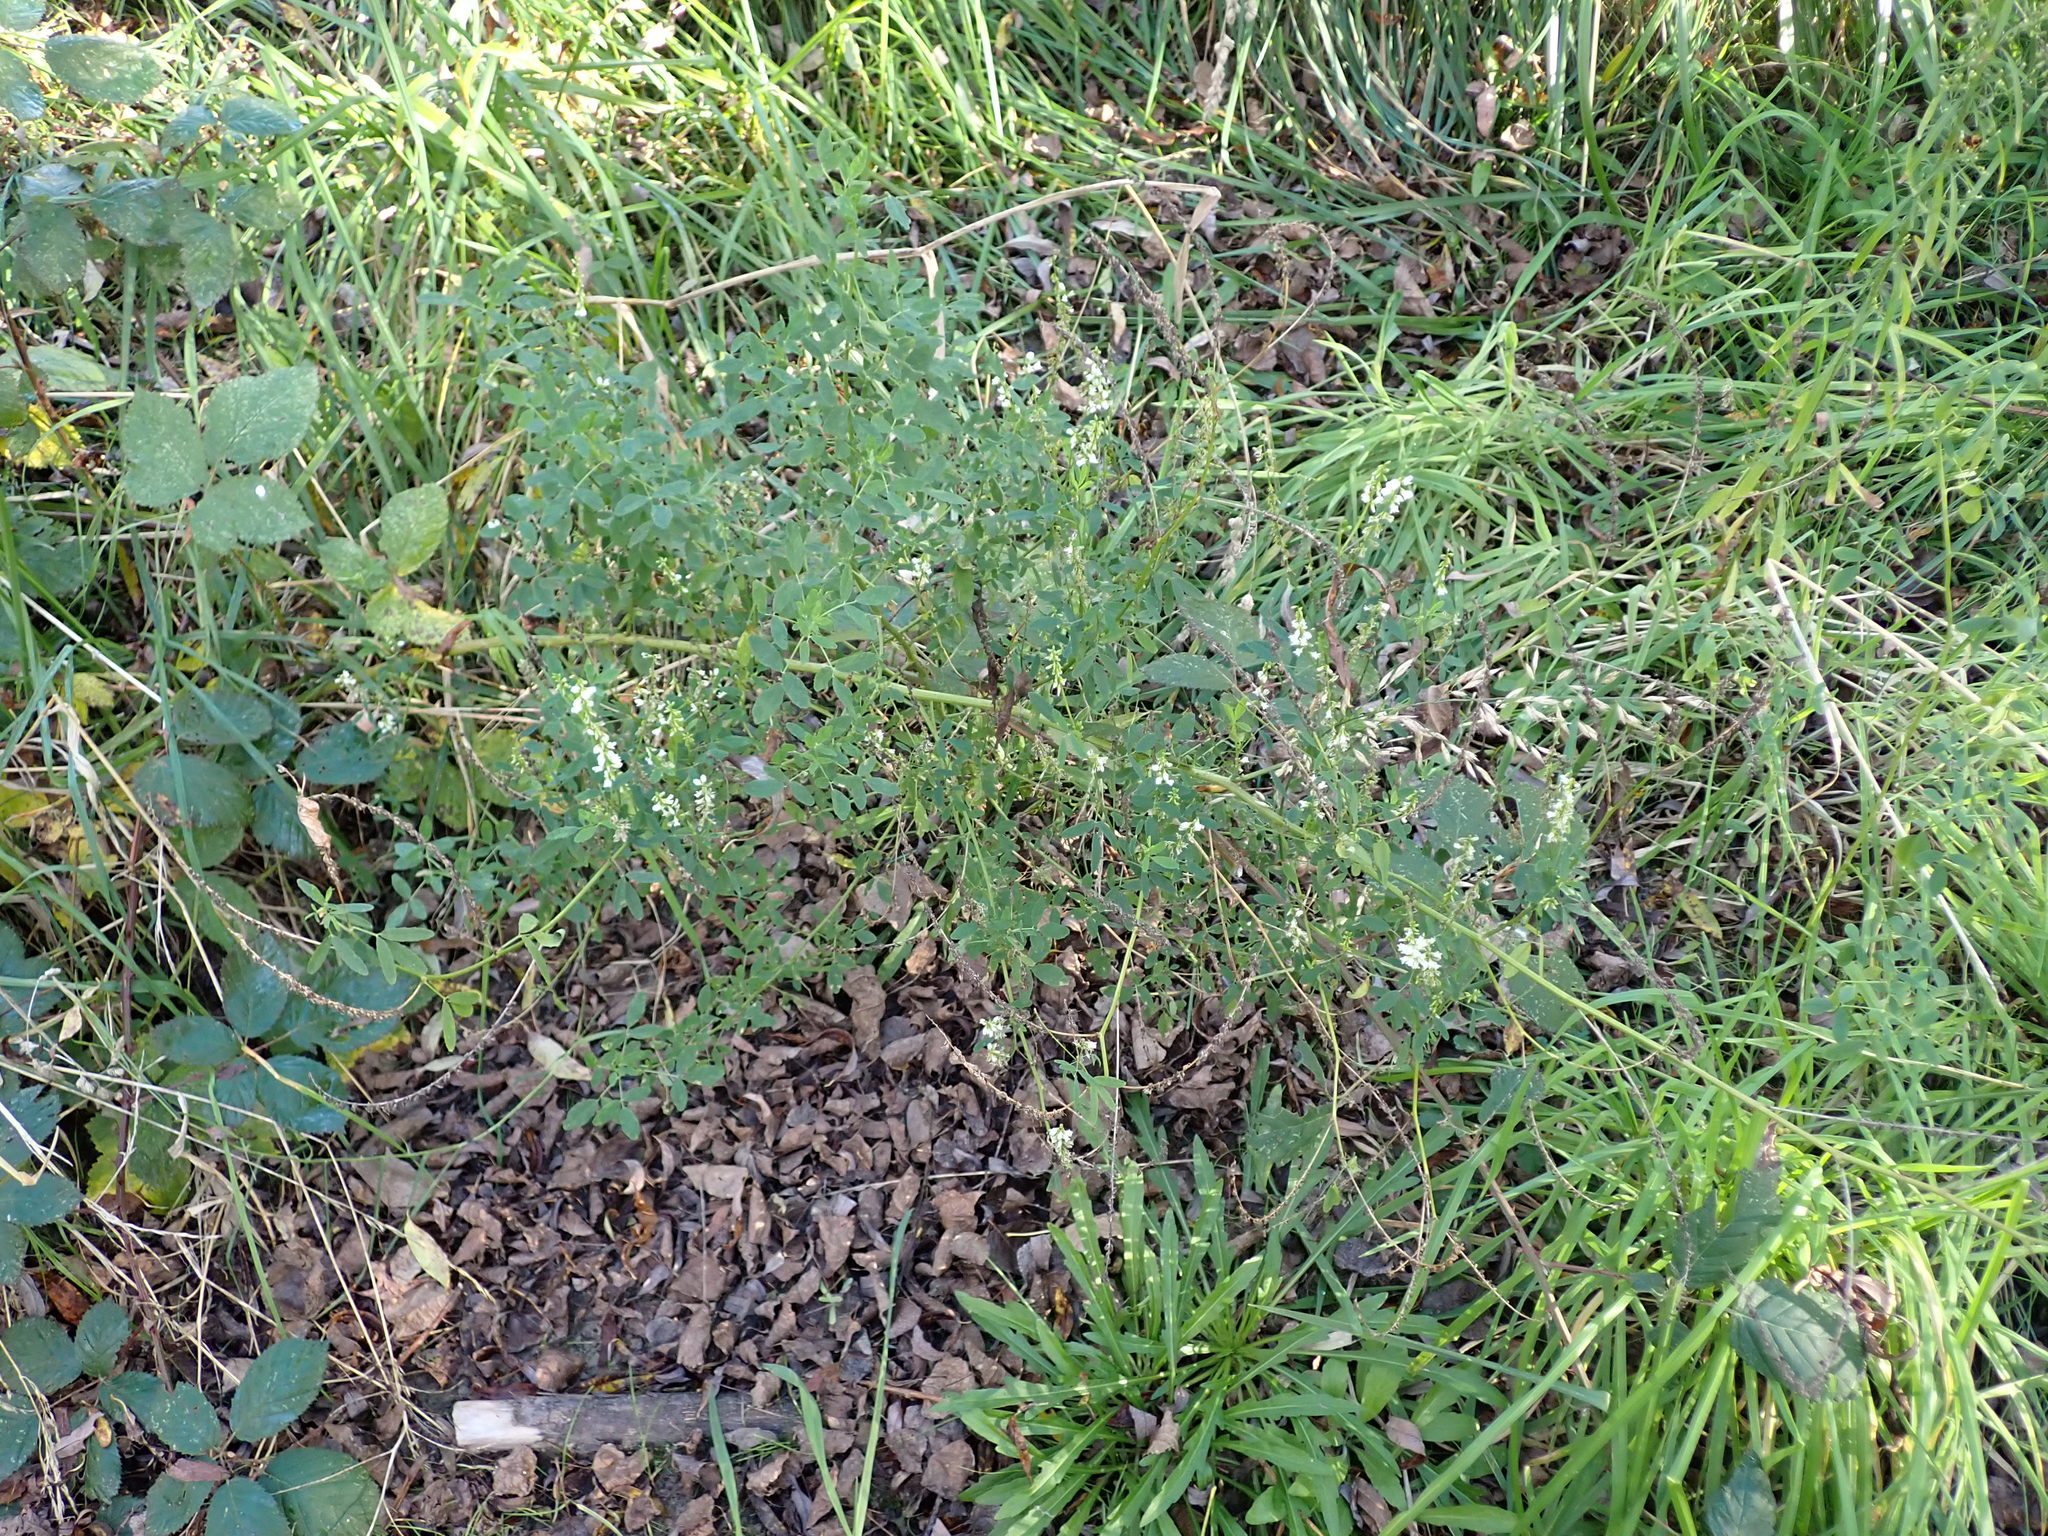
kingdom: Plantae
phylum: Tracheophyta
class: Magnoliopsida
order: Fabales
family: Fabaceae
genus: Melilotus
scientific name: Melilotus albus
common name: White melilot
